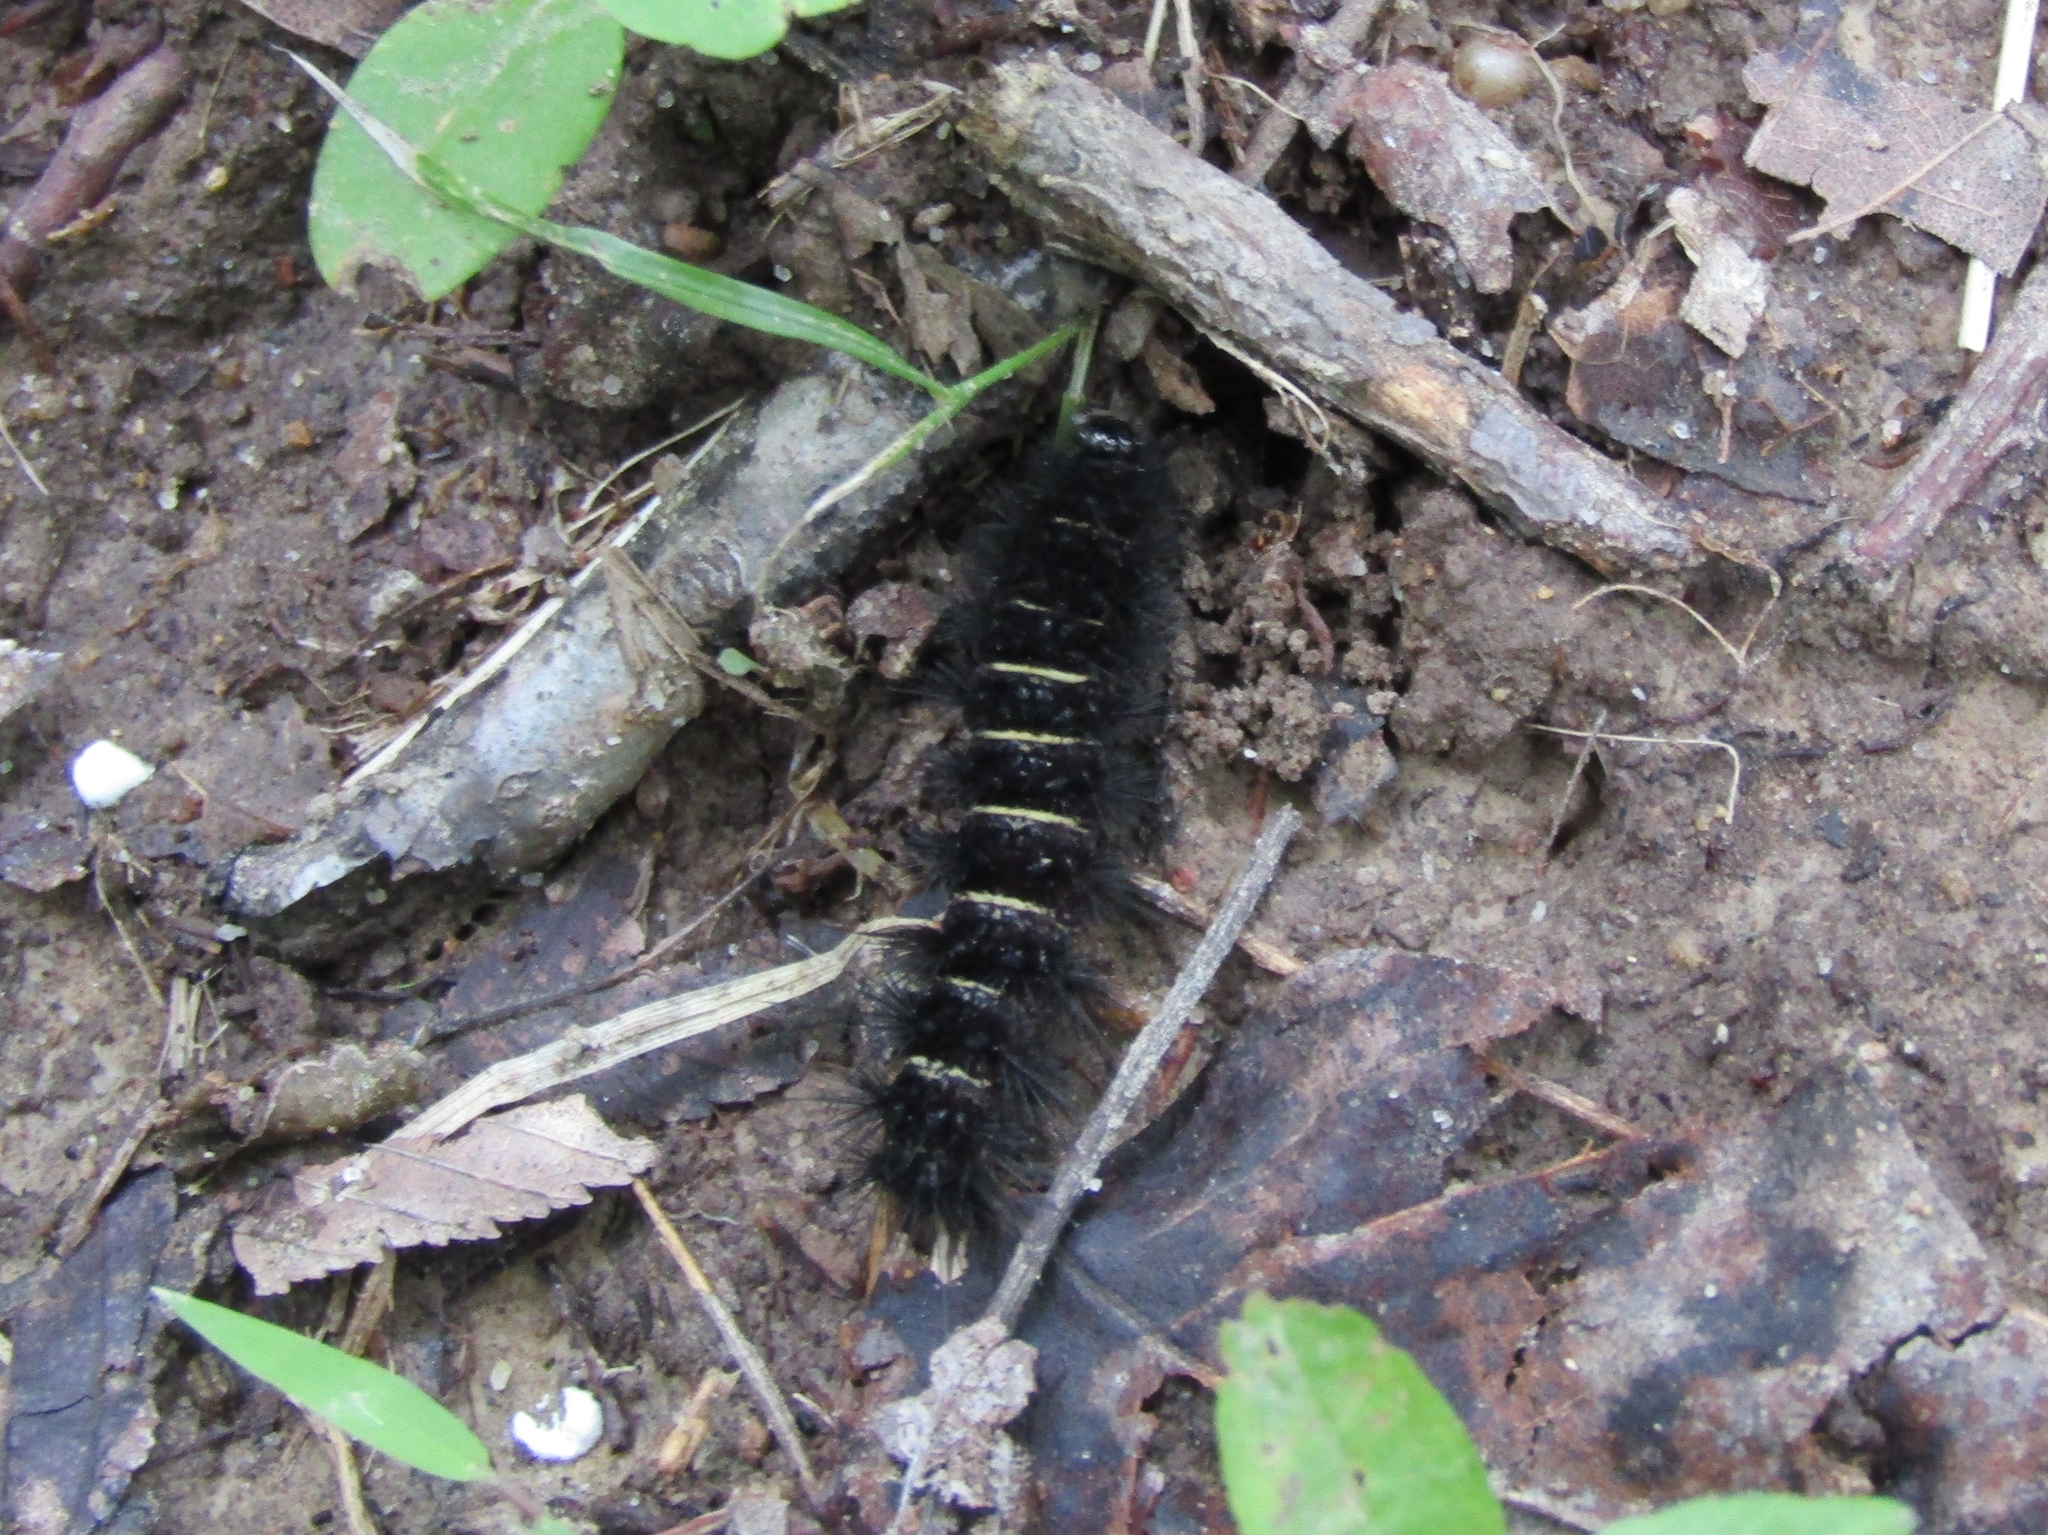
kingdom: Animalia
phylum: Arthropoda
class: Insecta
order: Lepidoptera
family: Erebidae
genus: Spilosoma
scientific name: Spilosoma congrua
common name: Agreeable tiger moth
